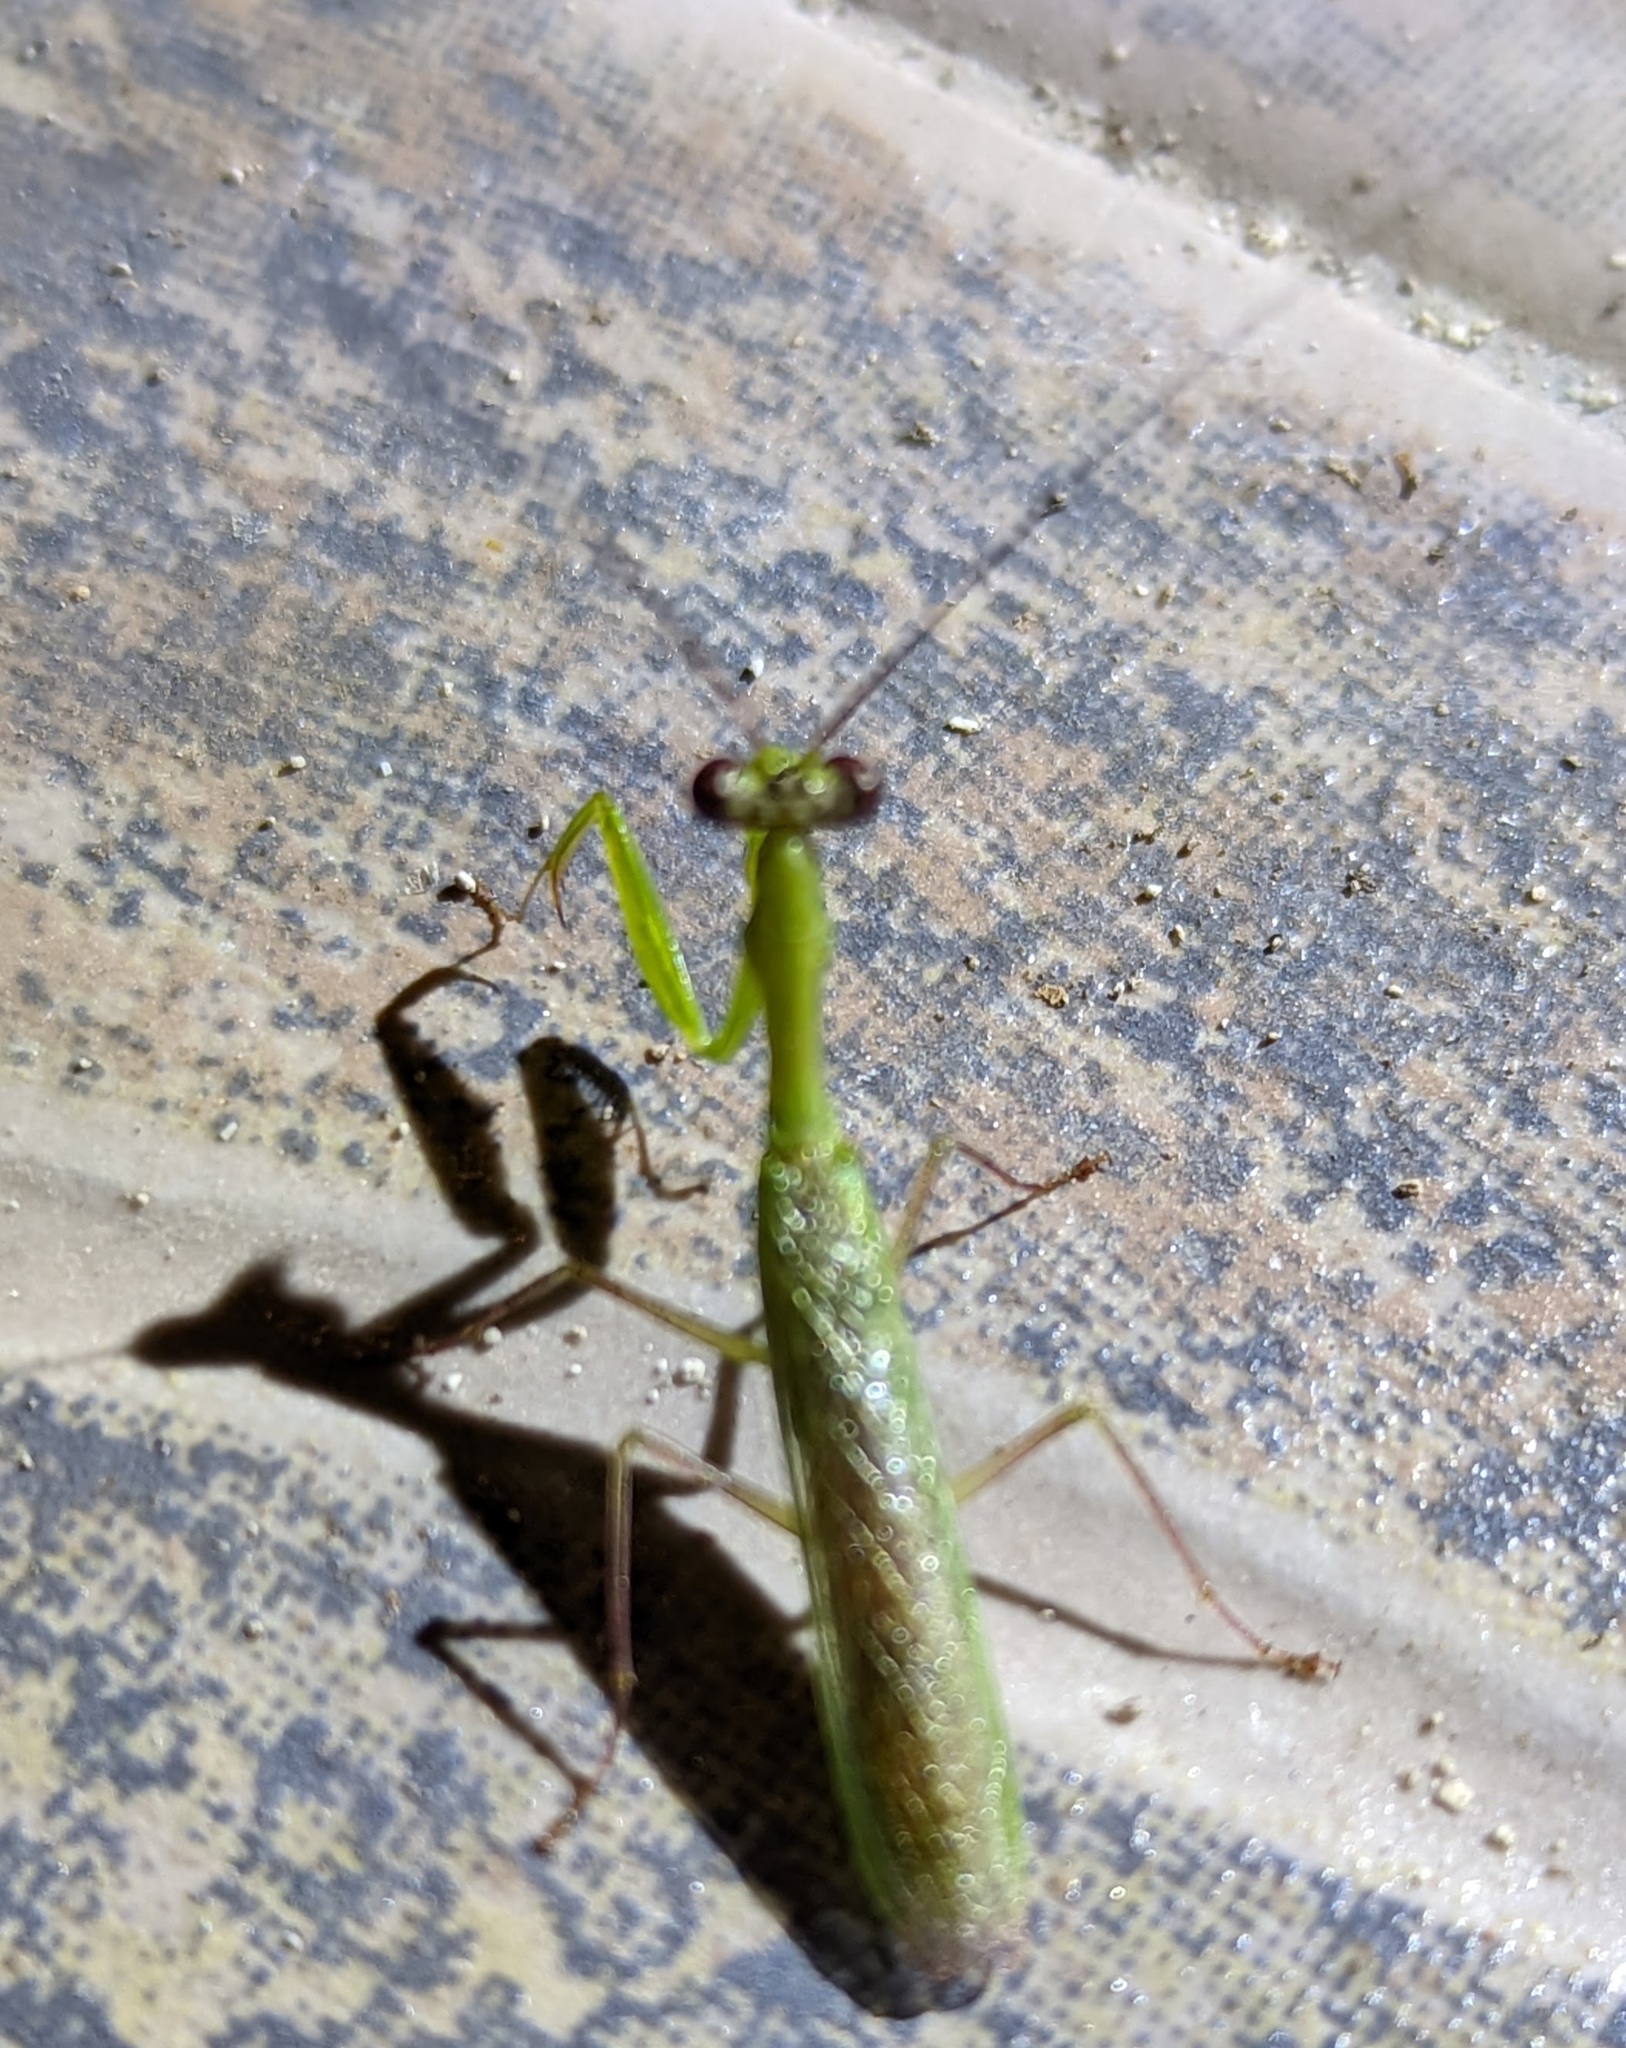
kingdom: Animalia
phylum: Arthropoda
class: Insecta
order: Mantodea
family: Hymenopodidae
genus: Acromantis
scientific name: Acromantis palauana
